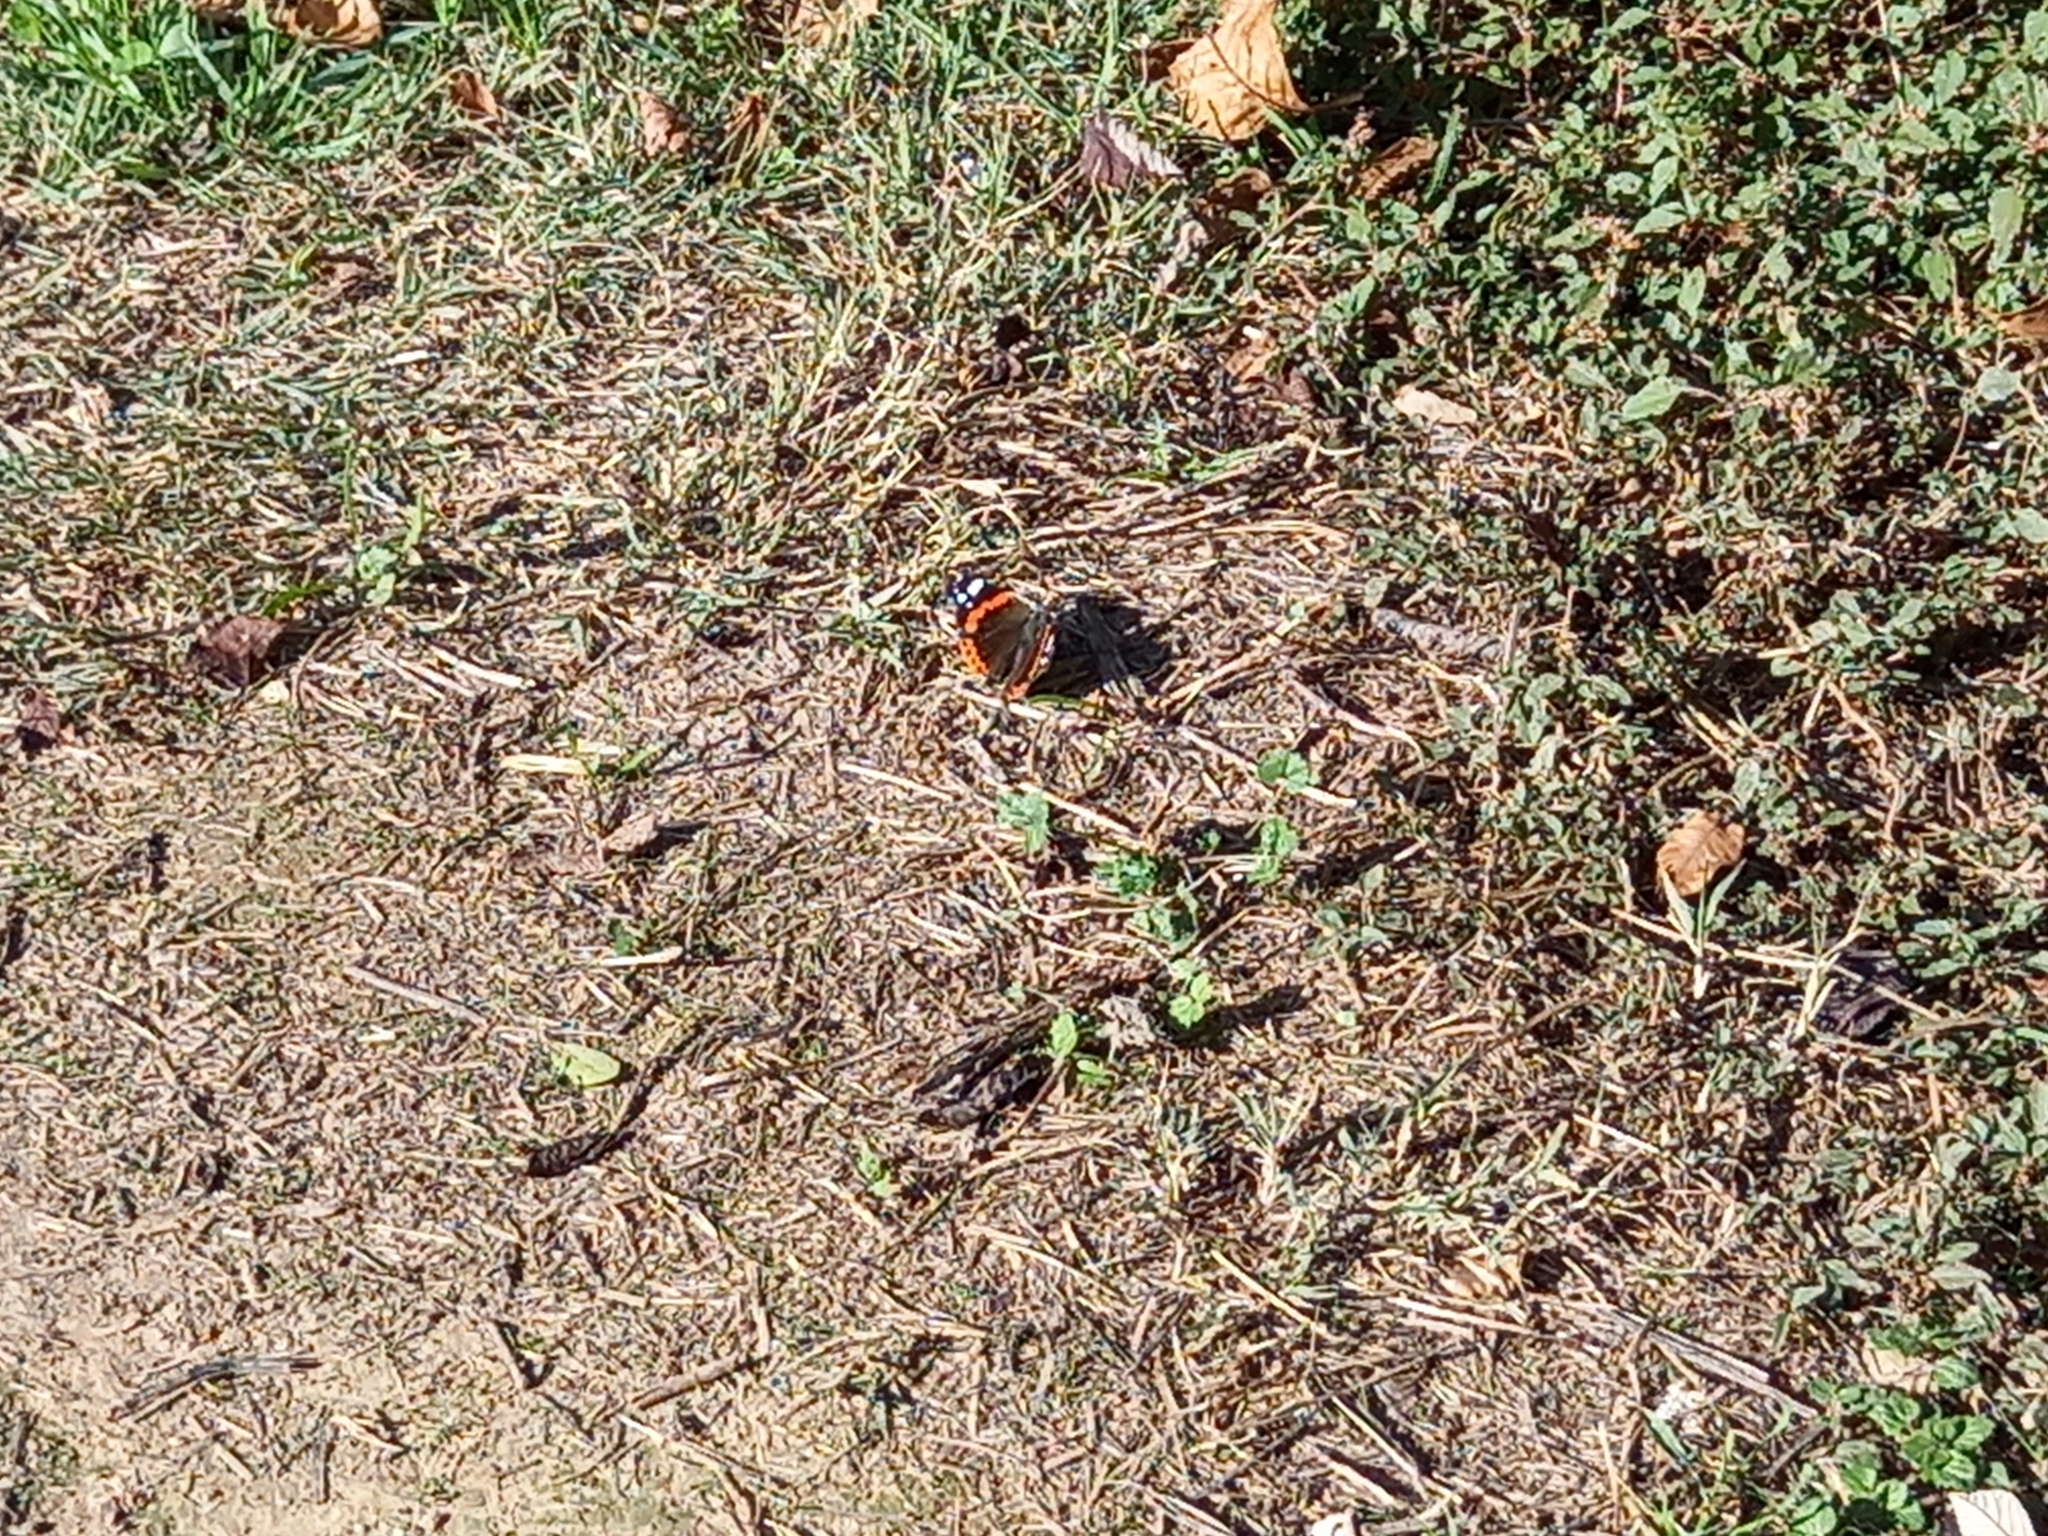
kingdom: Animalia
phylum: Arthropoda
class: Insecta
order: Lepidoptera
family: Nymphalidae
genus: Vanessa
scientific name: Vanessa atalanta
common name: Red admiral
